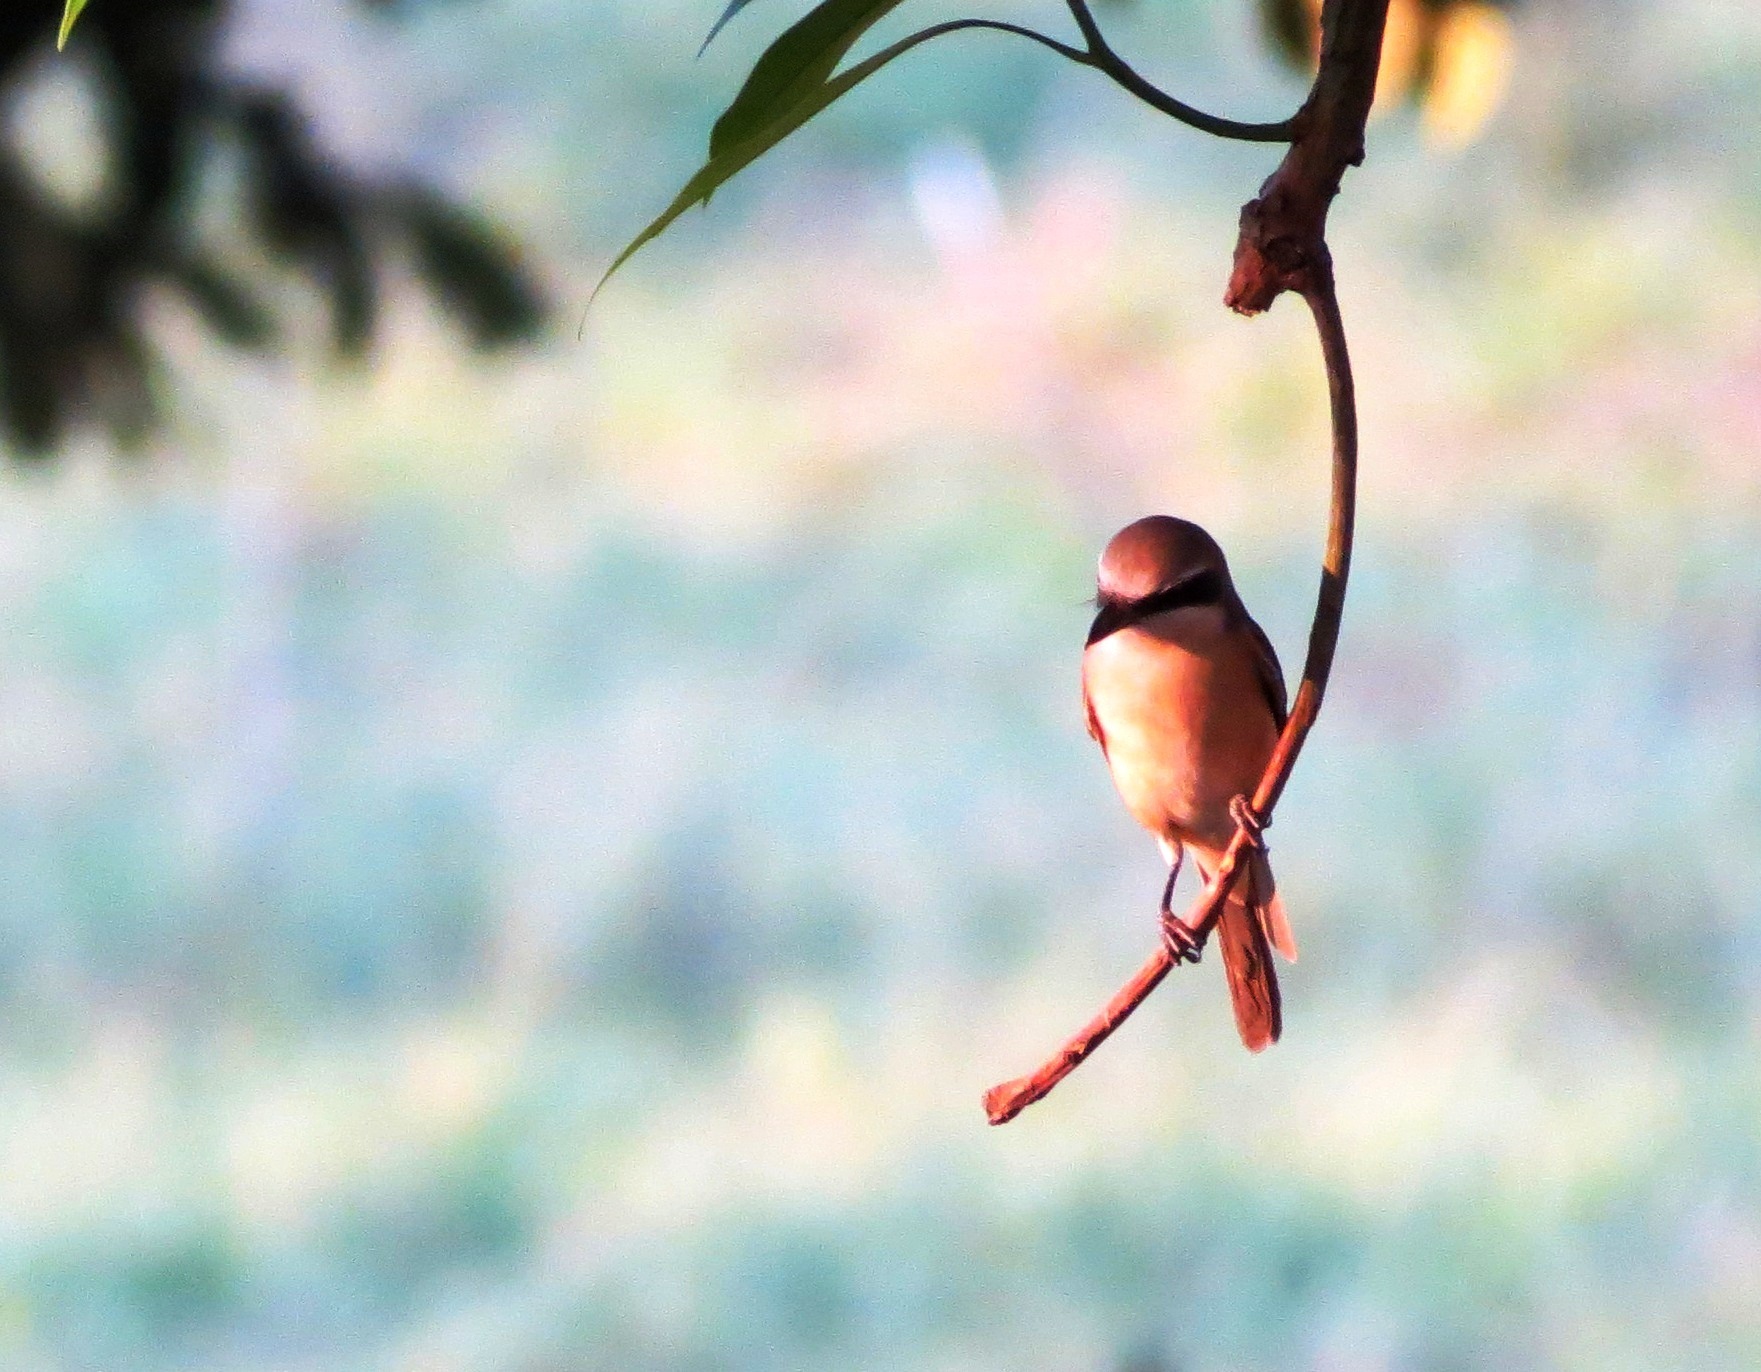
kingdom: Animalia
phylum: Chordata
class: Aves
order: Passeriformes
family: Laniidae
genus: Lanius
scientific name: Lanius cristatus
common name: Brown shrike
